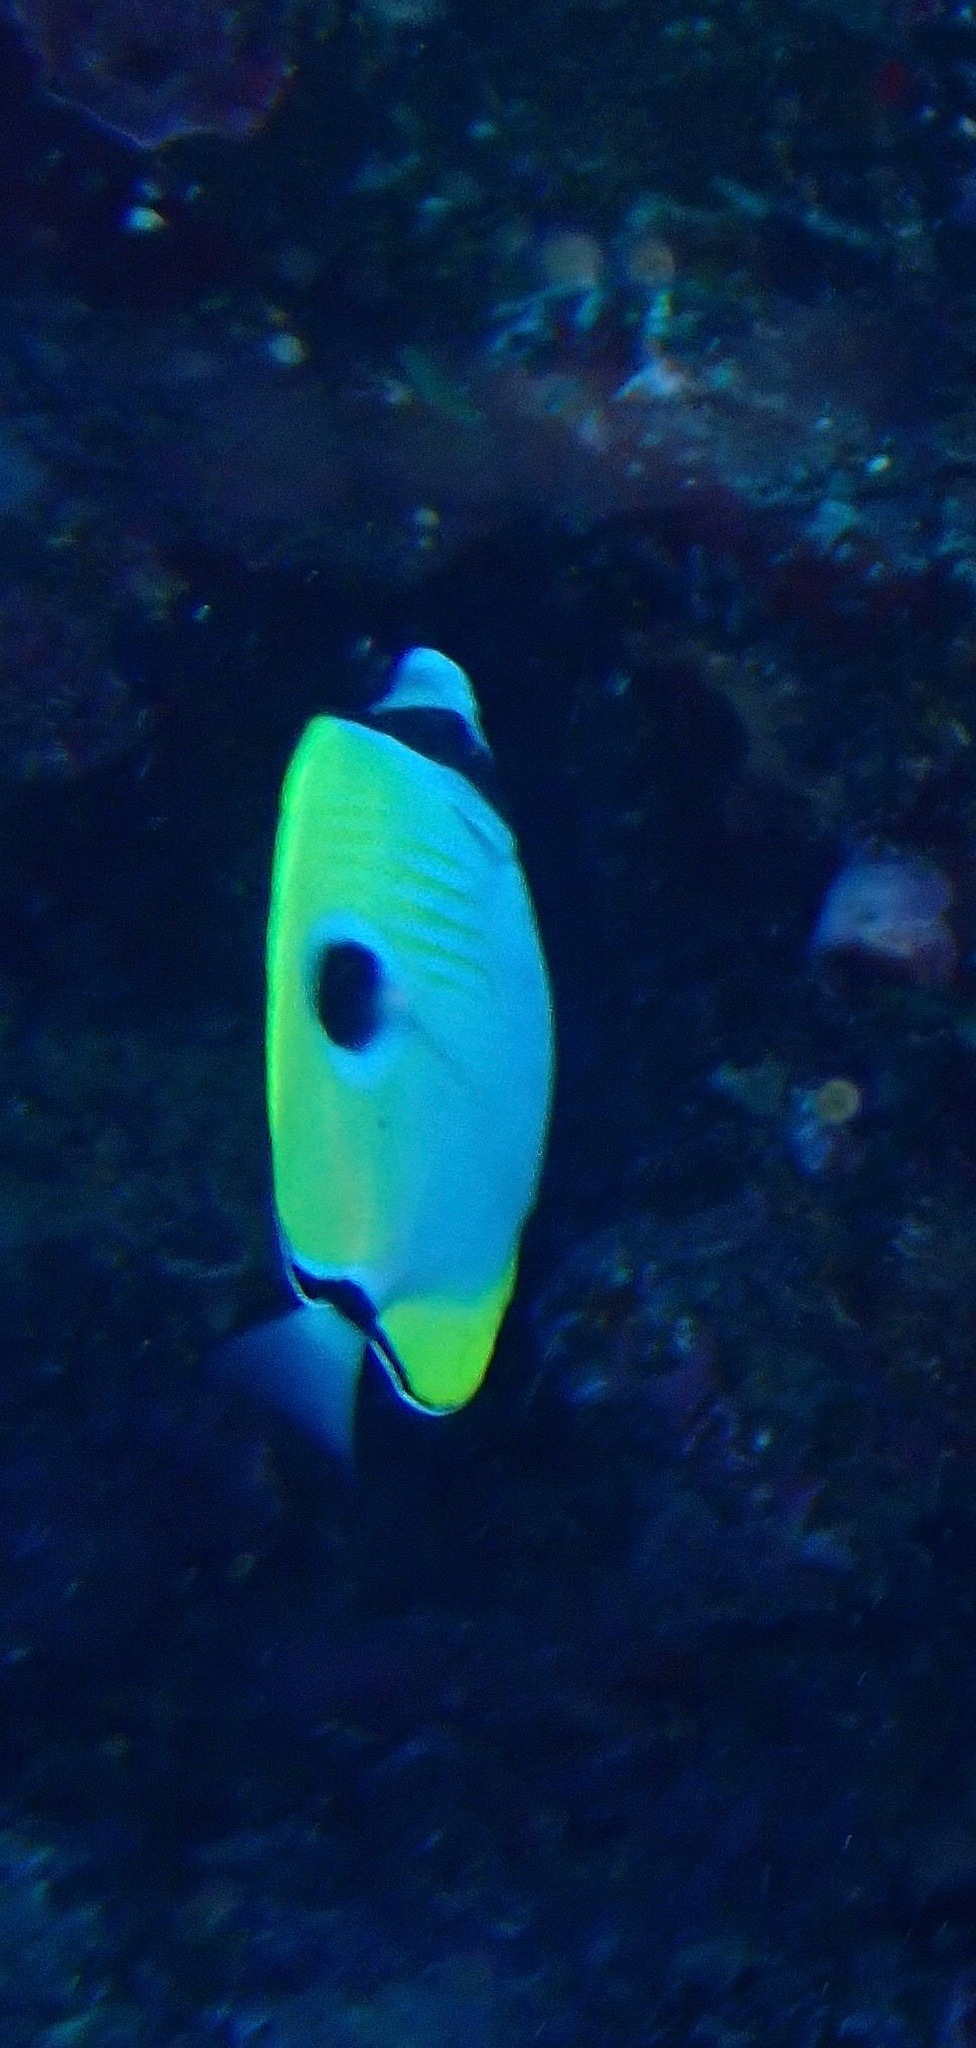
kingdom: Animalia
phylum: Chordata
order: Perciformes
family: Chaetodontidae
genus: Chaetodon
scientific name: Chaetodon unimaculatus
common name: Teardrop butterflyfish
